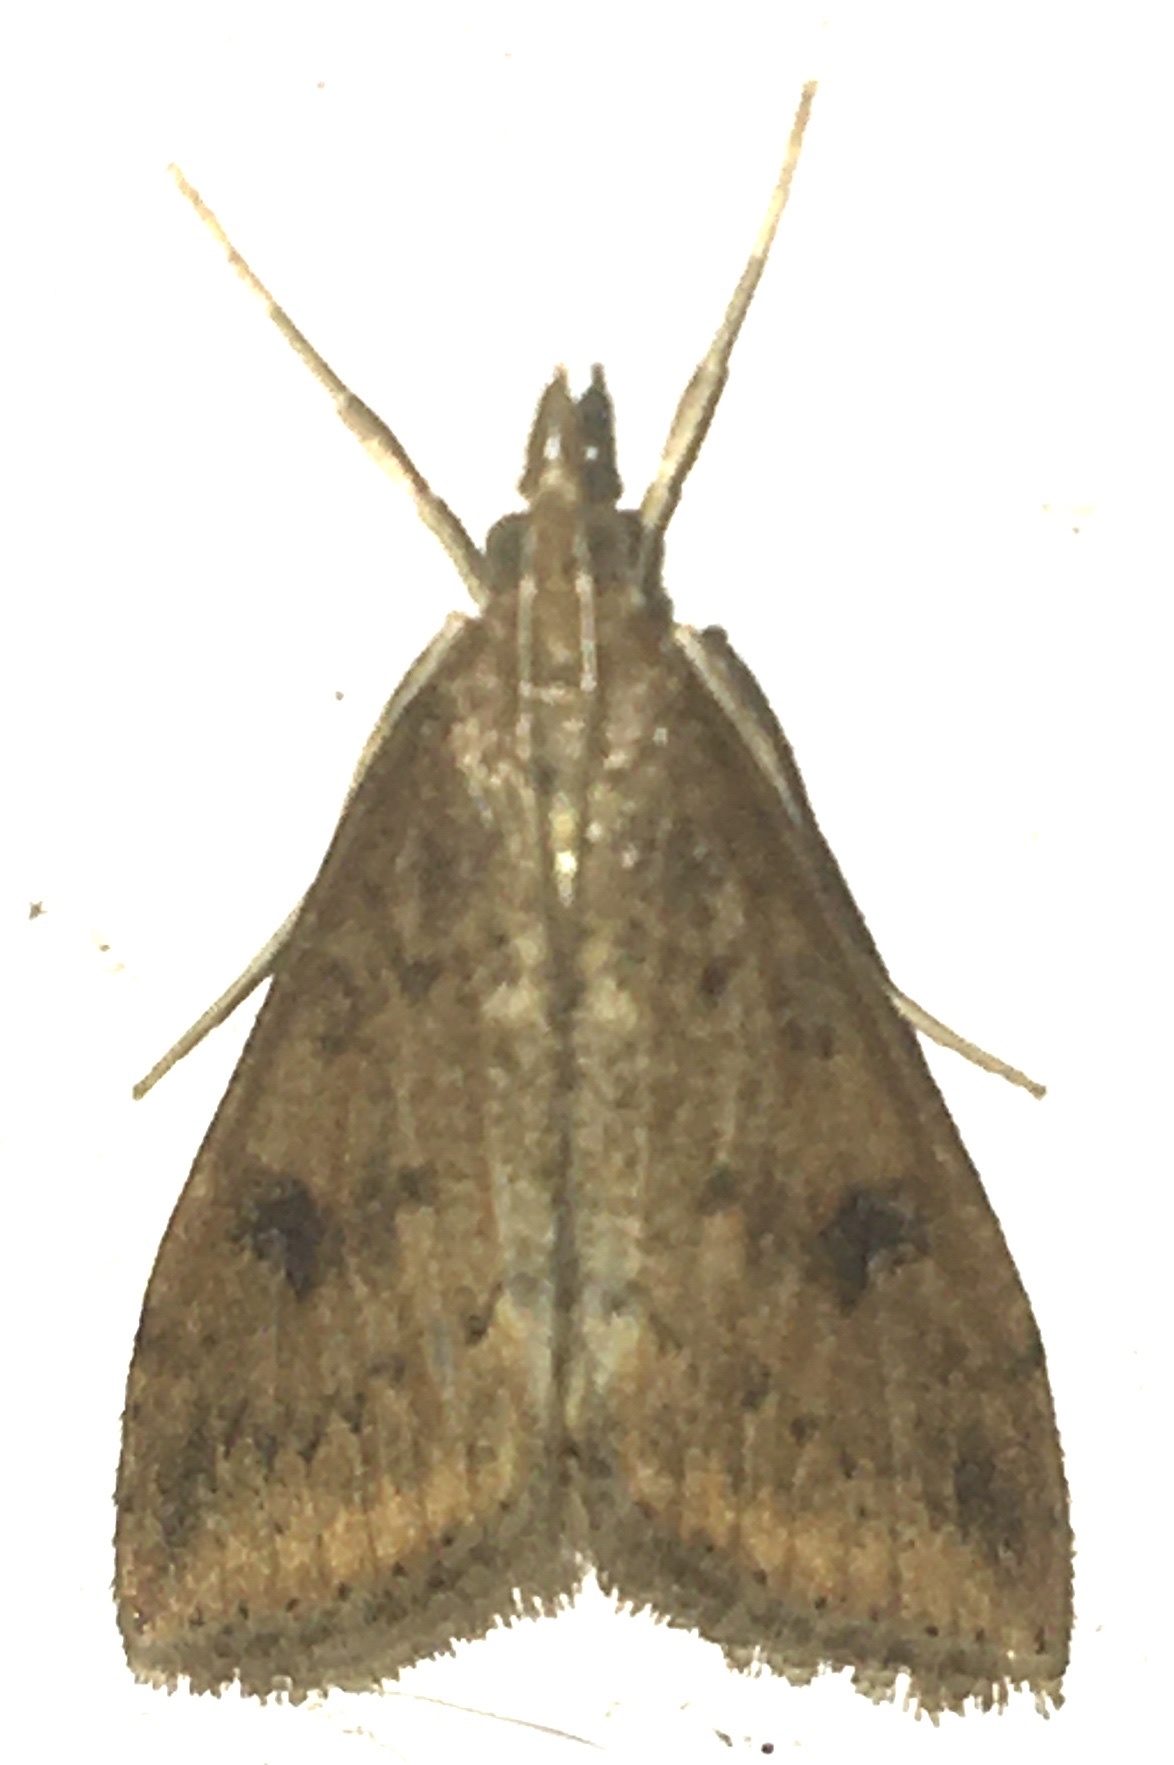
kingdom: Animalia
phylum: Arthropoda
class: Insecta
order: Lepidoptera
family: Crambidae
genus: Udea
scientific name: Udea ferrugalis
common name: Rusty dot
